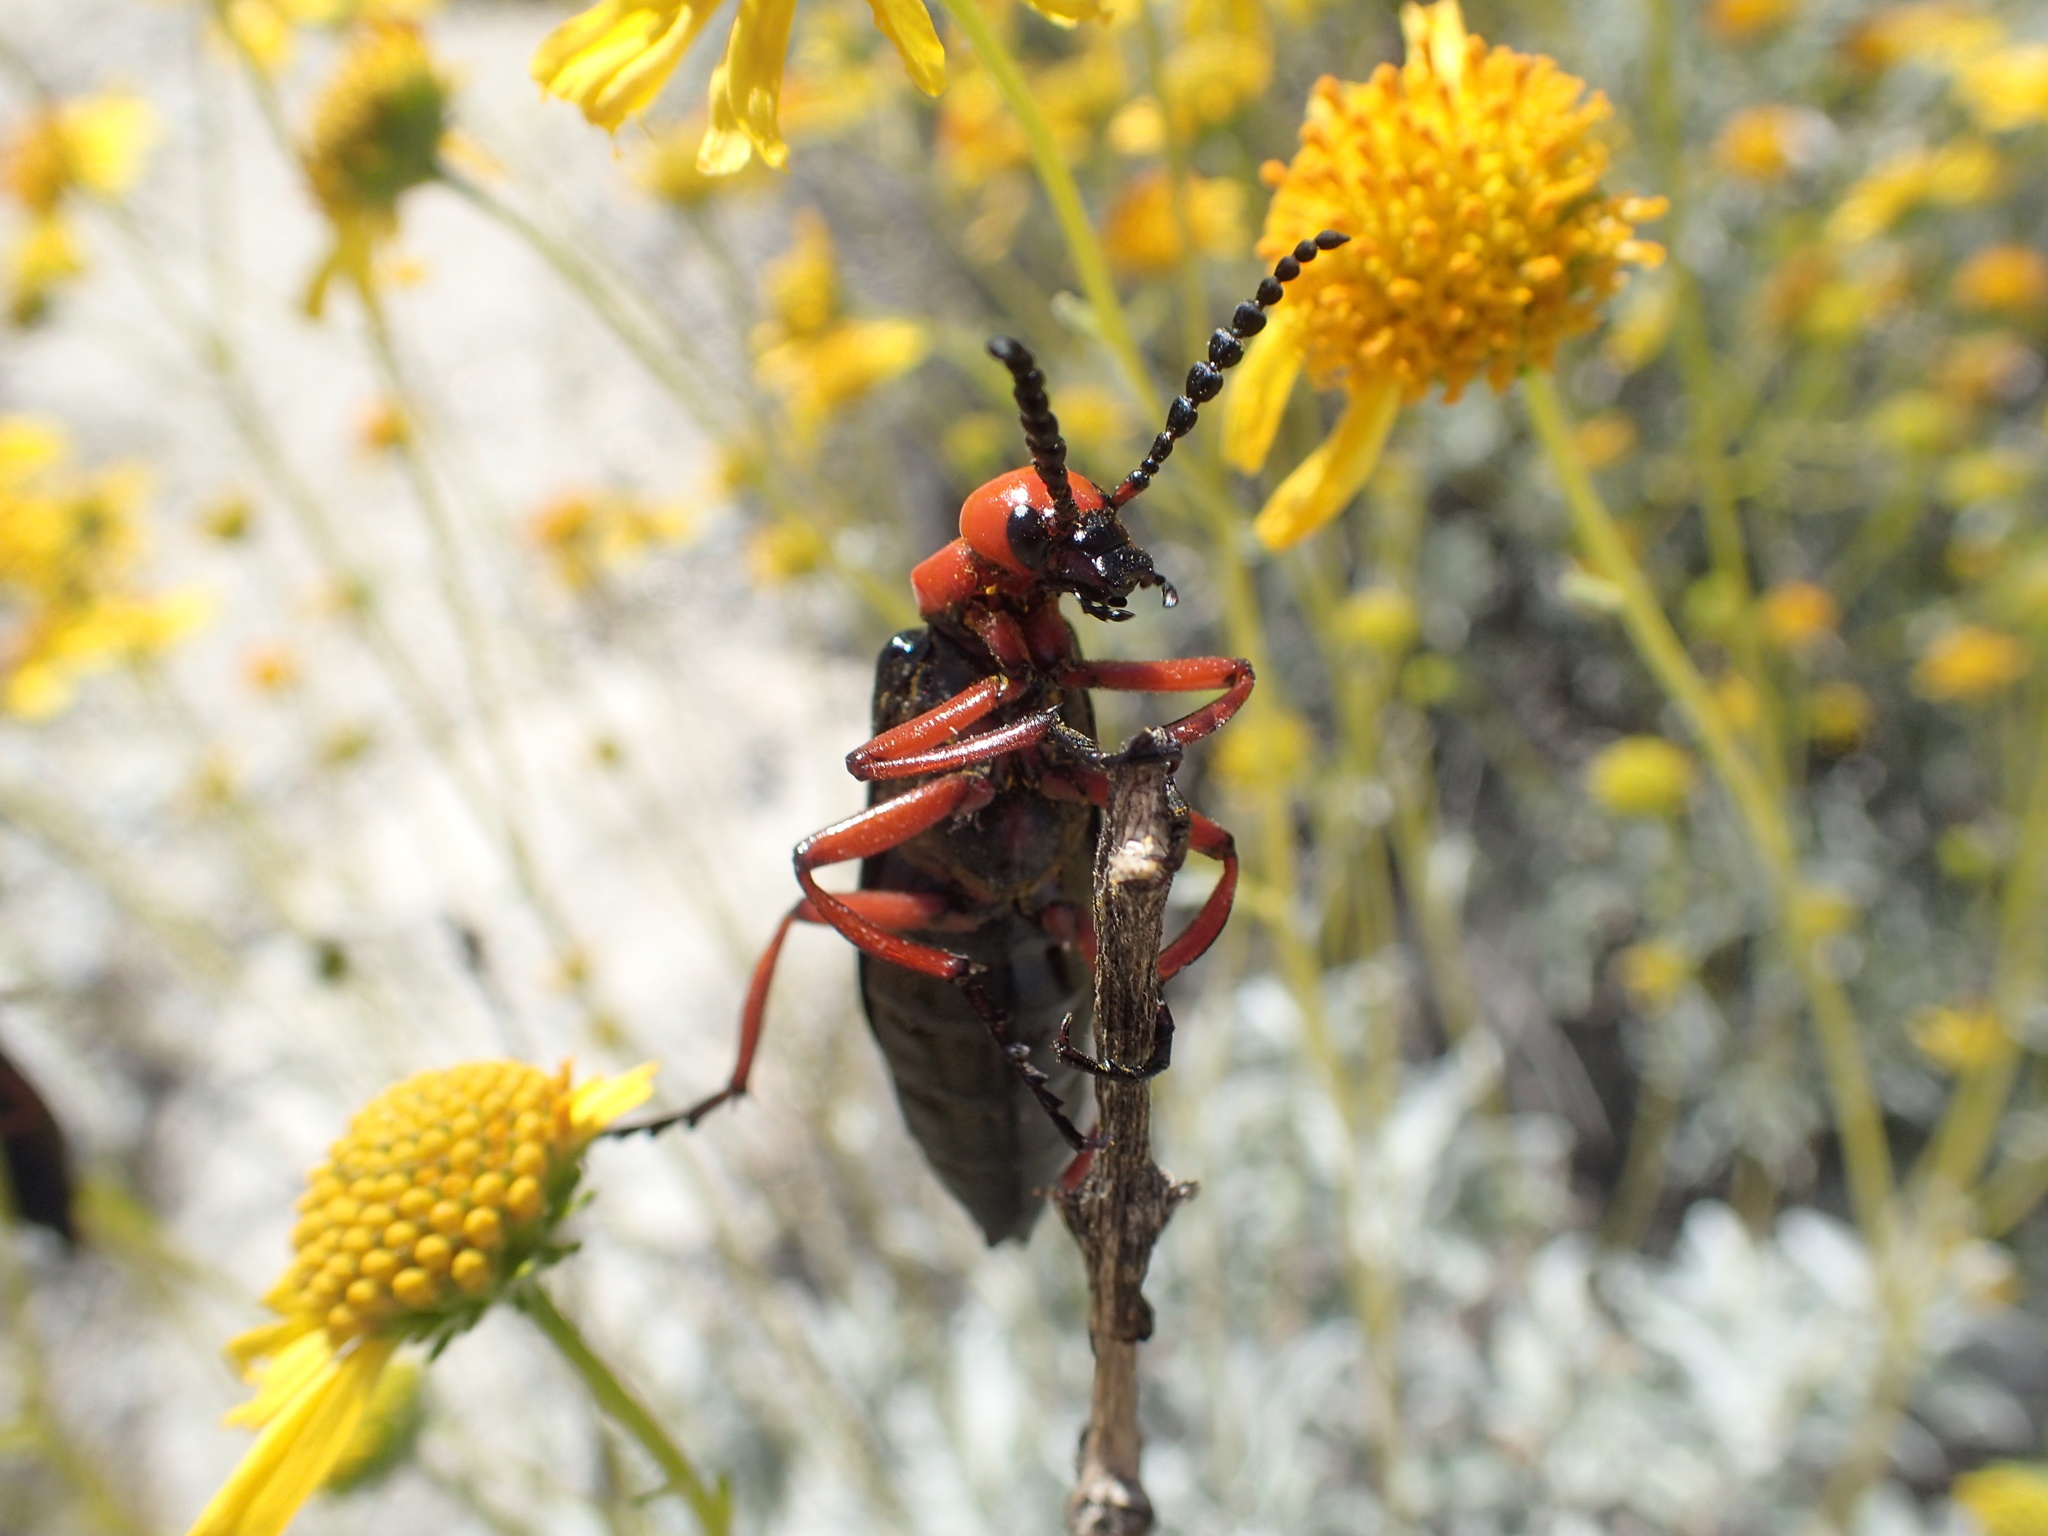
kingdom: Animalia
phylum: Arthropoda
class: Insecta
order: Coleoptera
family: Meloidae
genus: Lytta
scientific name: Lytta magister
